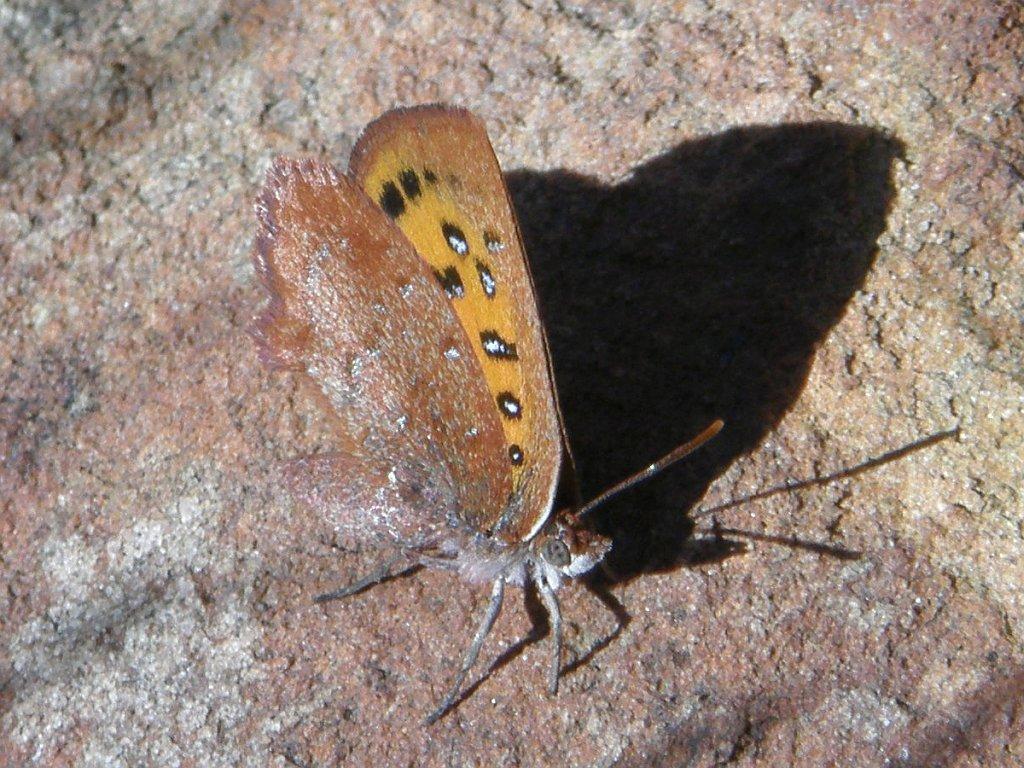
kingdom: Animalia
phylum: Arthropoda
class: Insecta
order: Lepidoptera
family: Lycaenidae
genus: Aloeides
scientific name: Aloeides aranda
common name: Aranda copper
